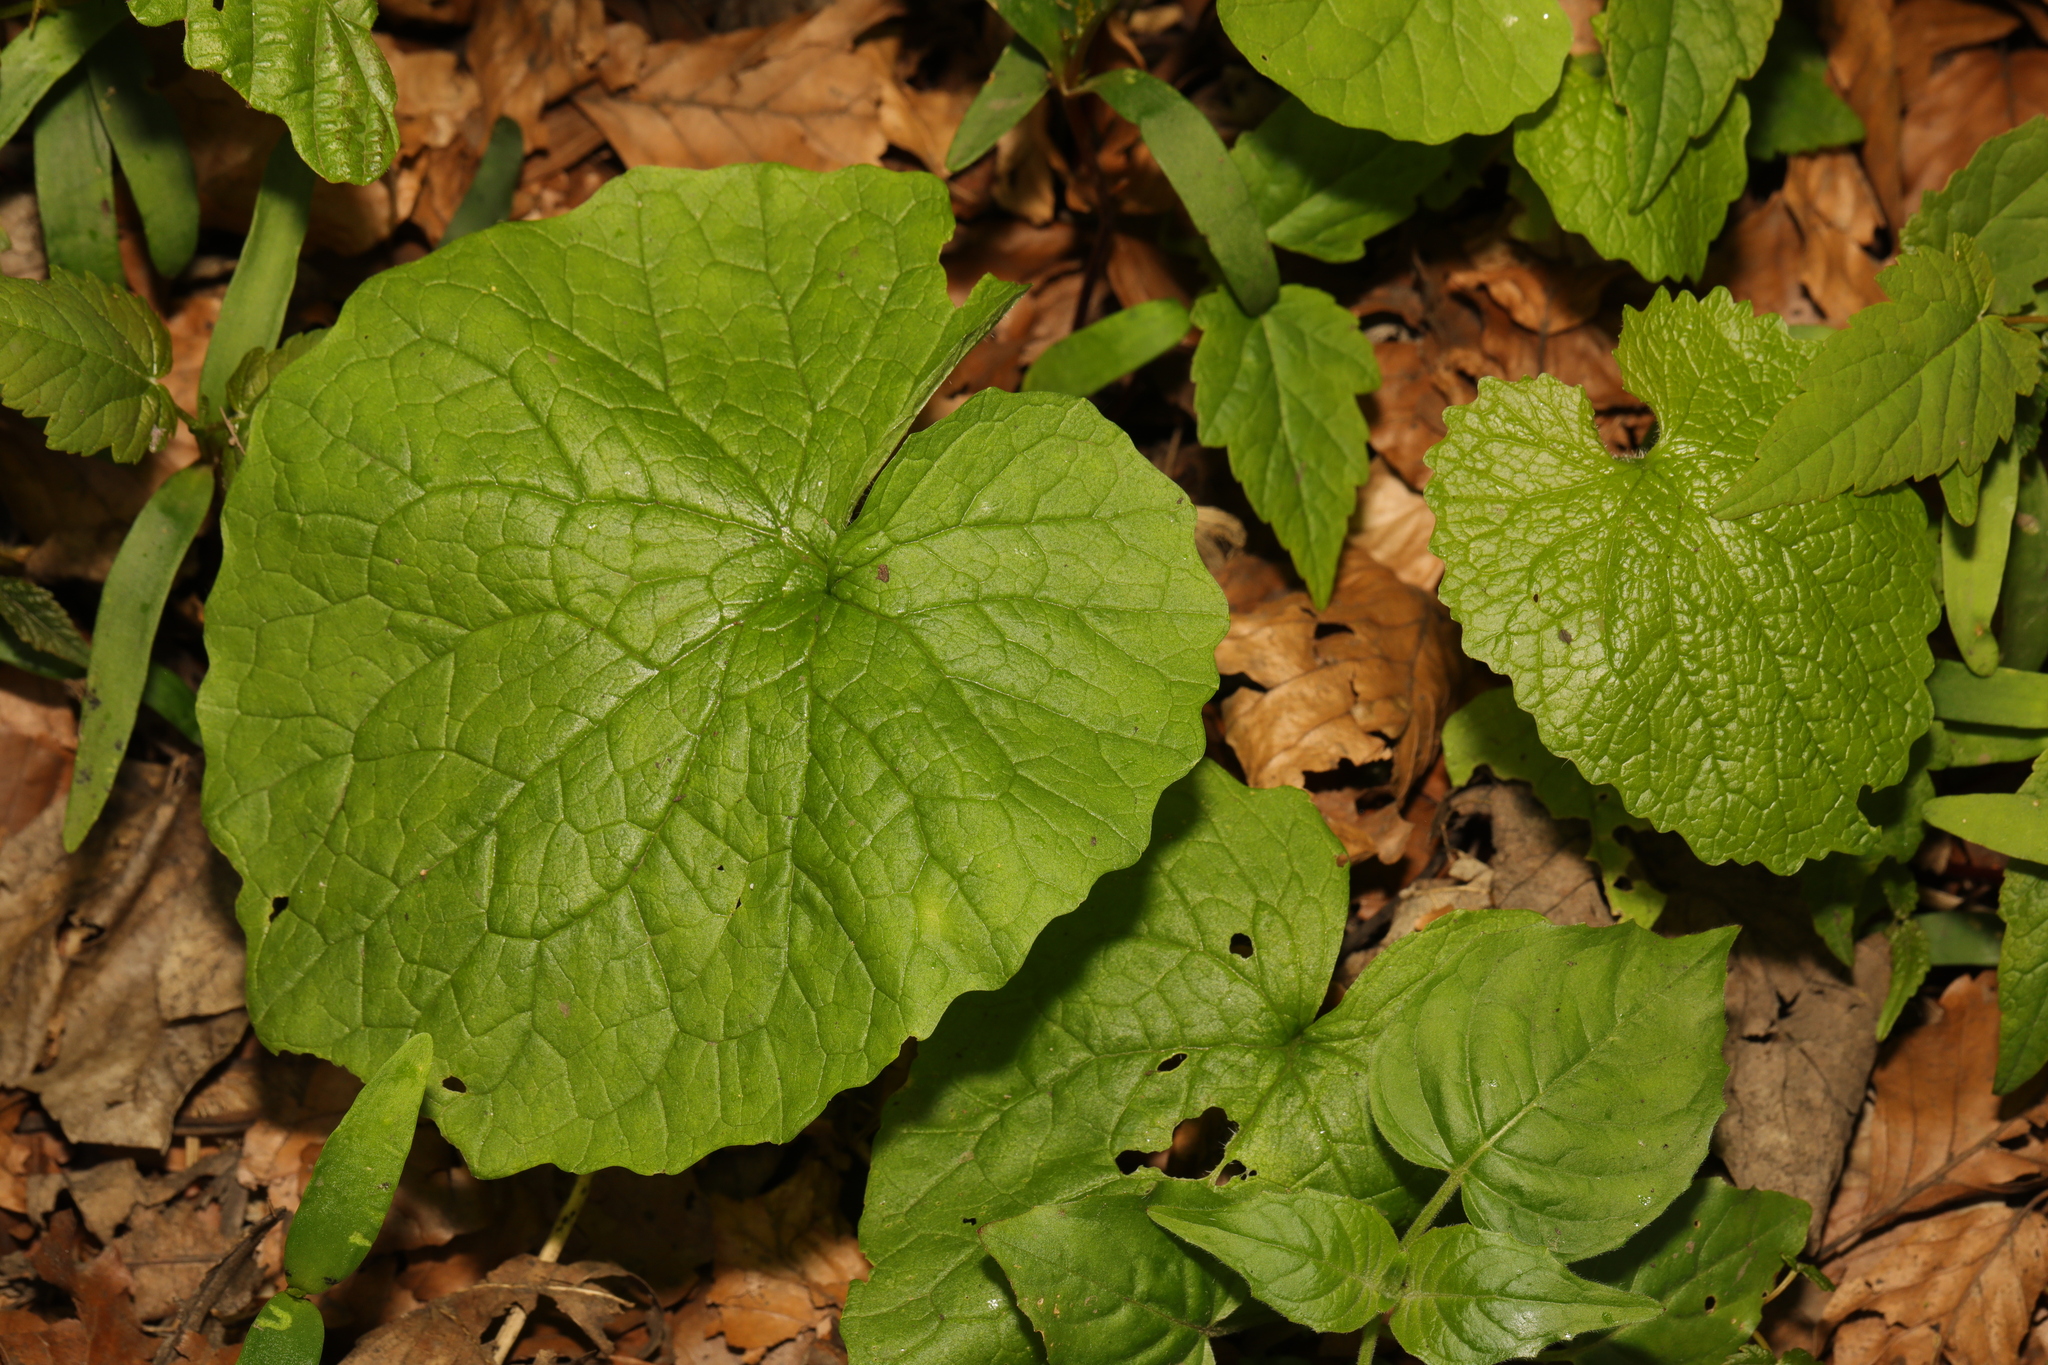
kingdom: Plantae
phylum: Tracheophyta
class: Magnoliopsida
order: Brassicales
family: Brassicaceae
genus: Alliaria
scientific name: Alliaria petiolata
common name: Garlic mustard
